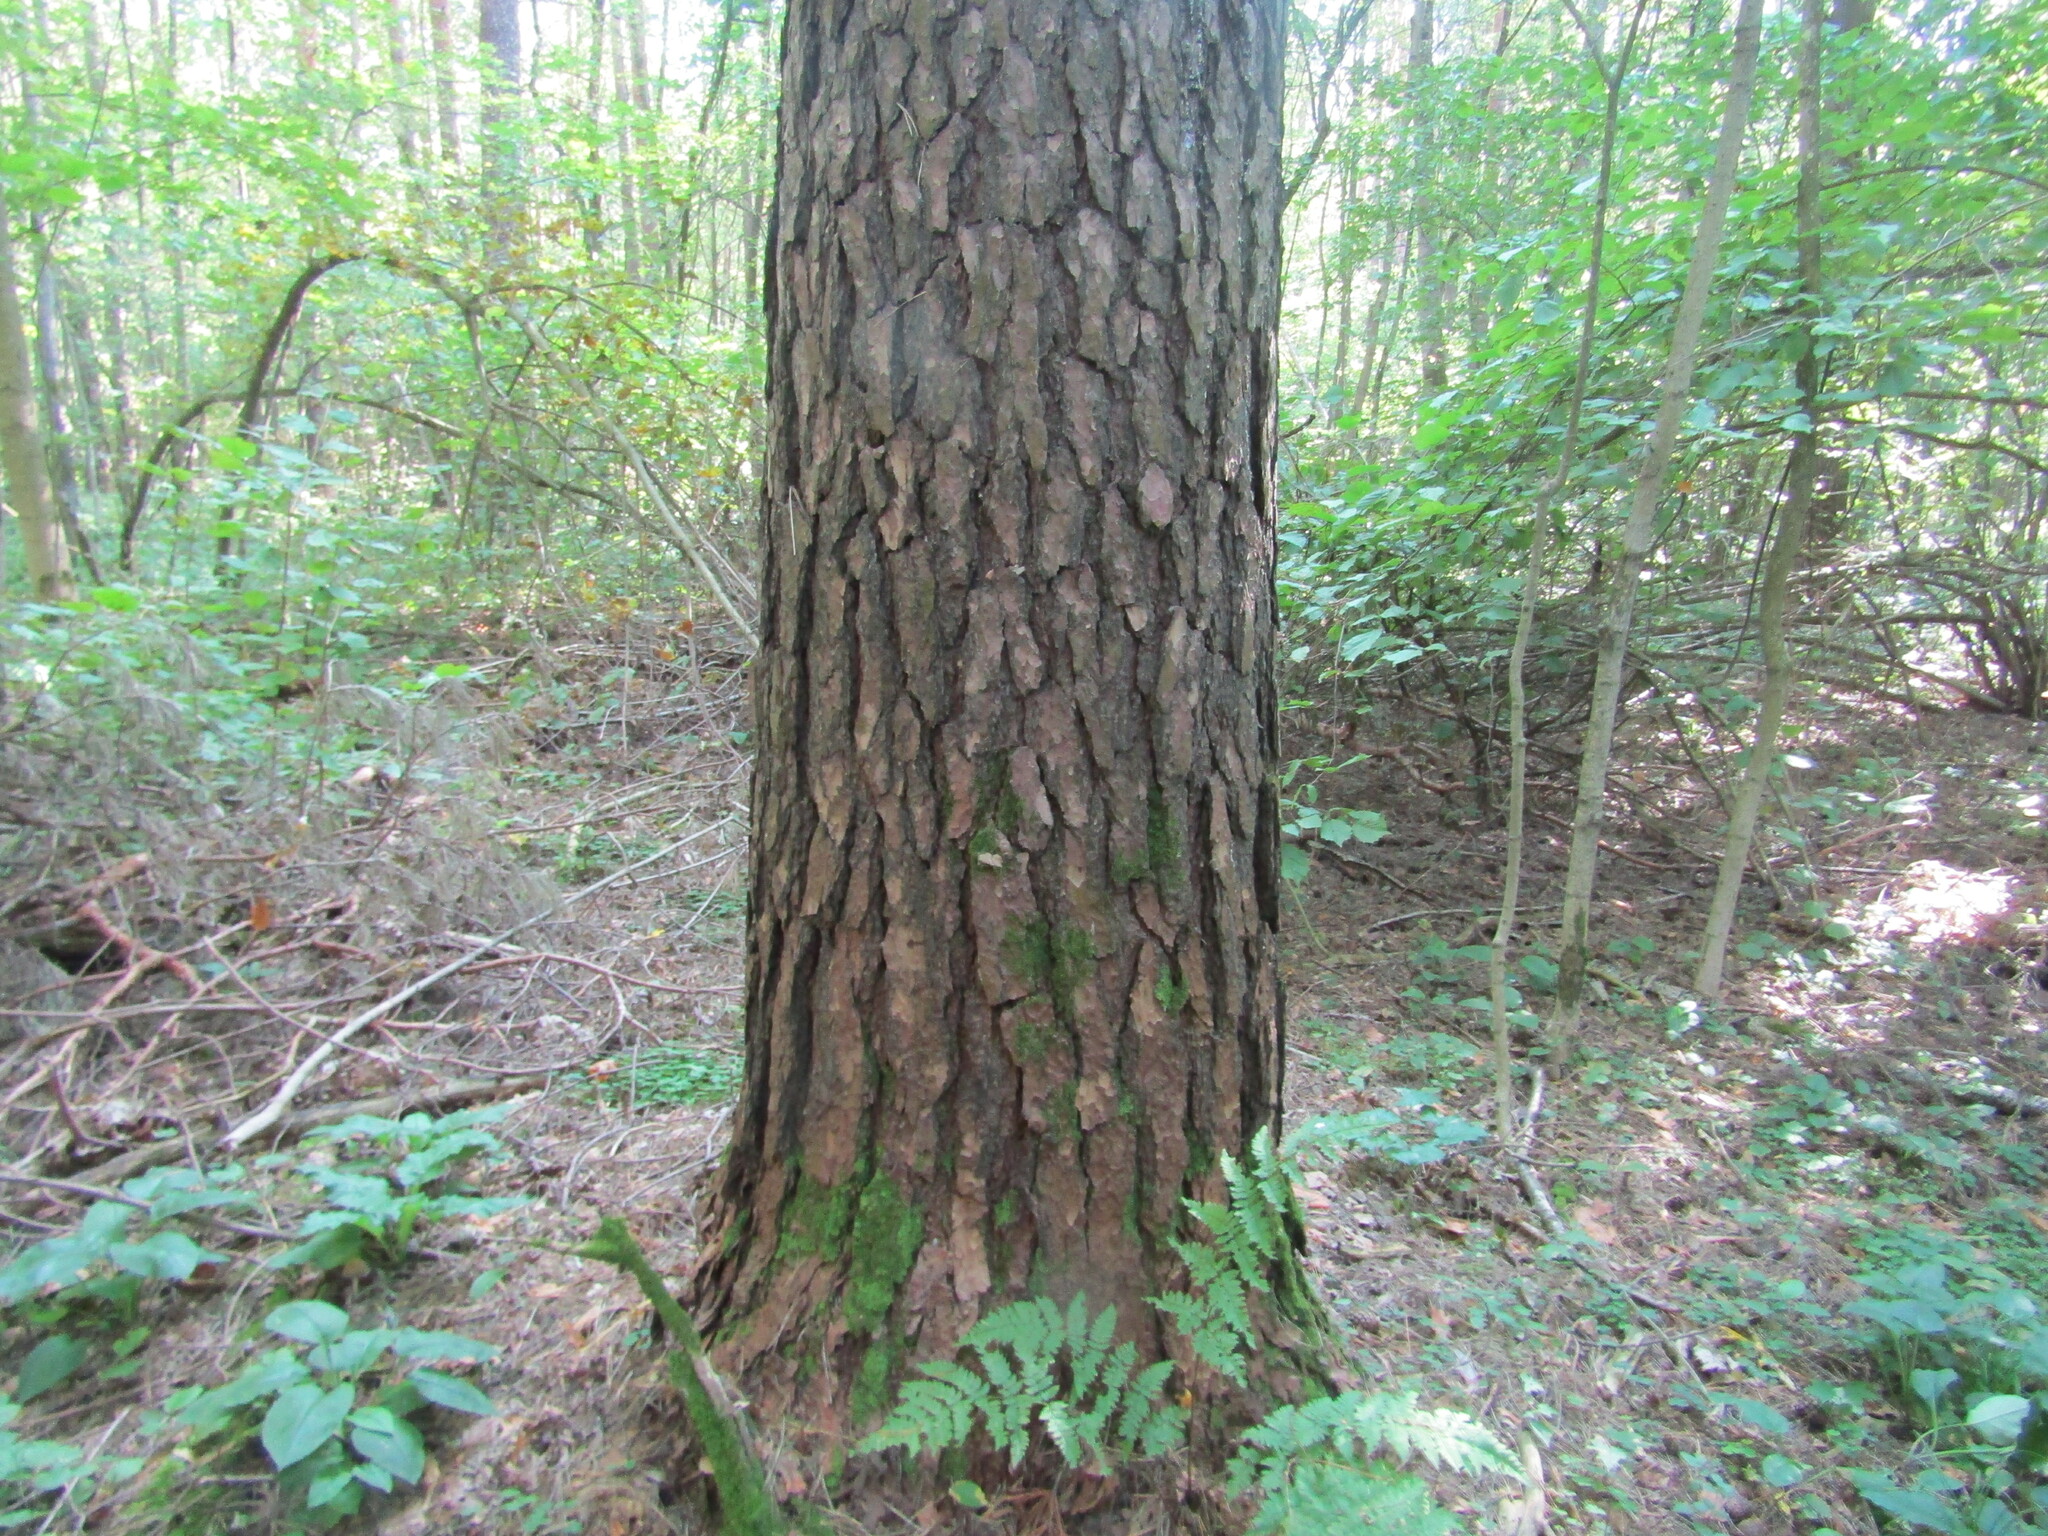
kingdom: Plantae
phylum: Tracheophyta
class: Pinopsida
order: Pinales
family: Pinaceae
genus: Pinus
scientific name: Pinus sylvestris
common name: Scots pine
